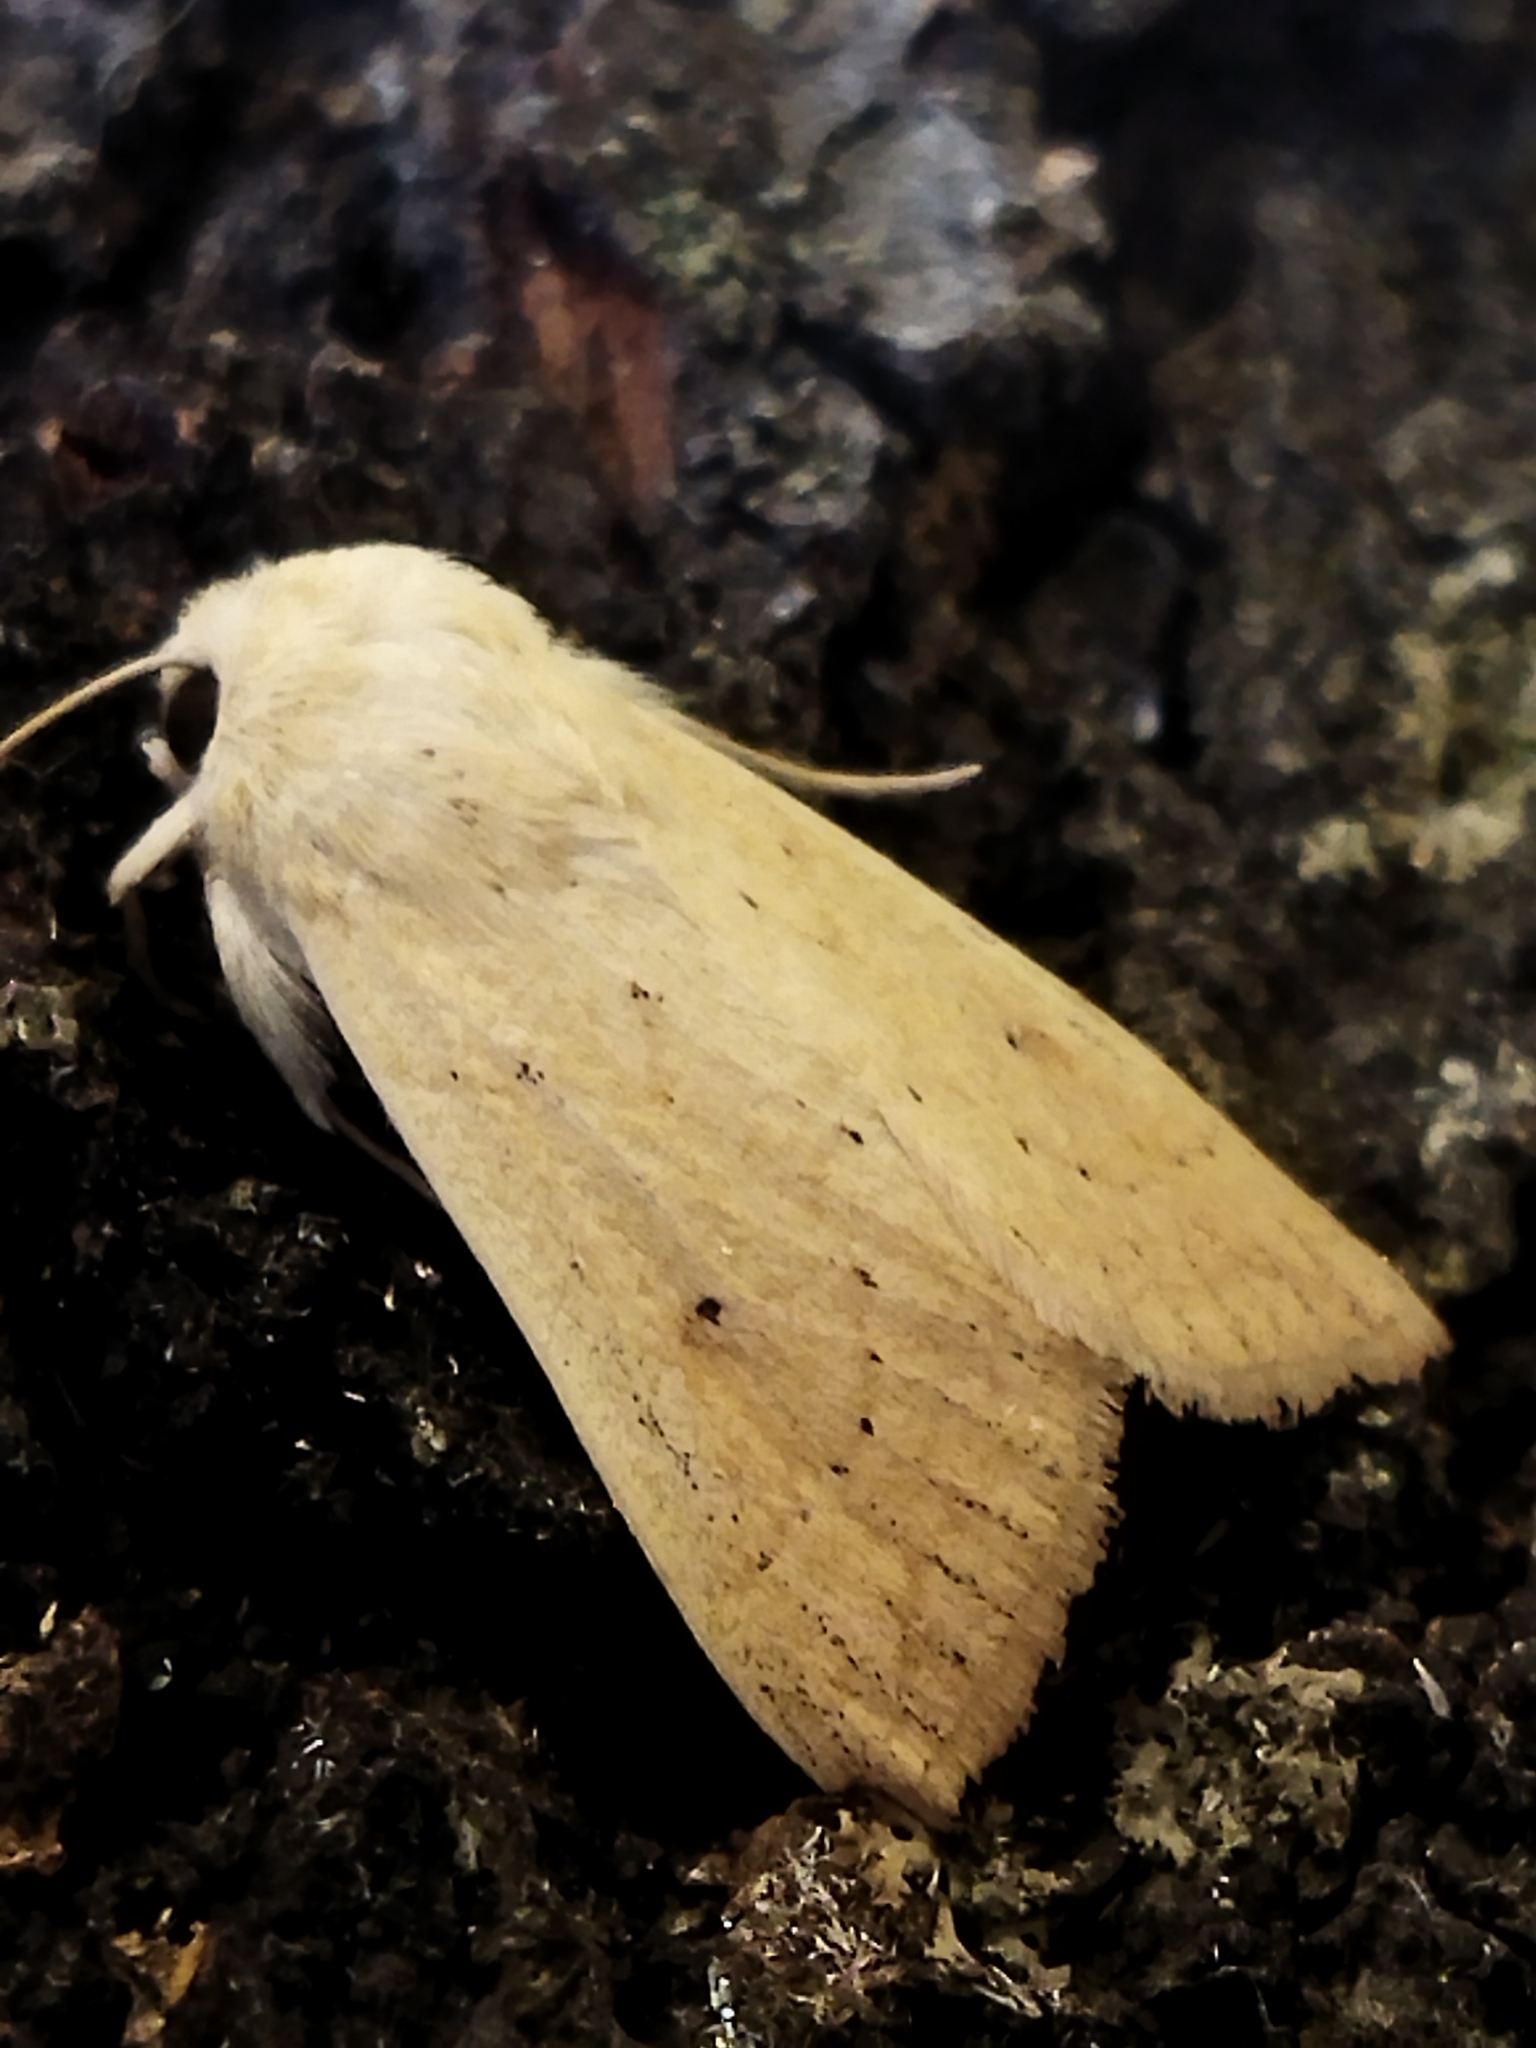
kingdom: Animalia
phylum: Arthropoda
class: Insecta
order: Lepidoptera
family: Noctuidae
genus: Mythimna
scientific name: Mythimna vitellina
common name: Delicate
